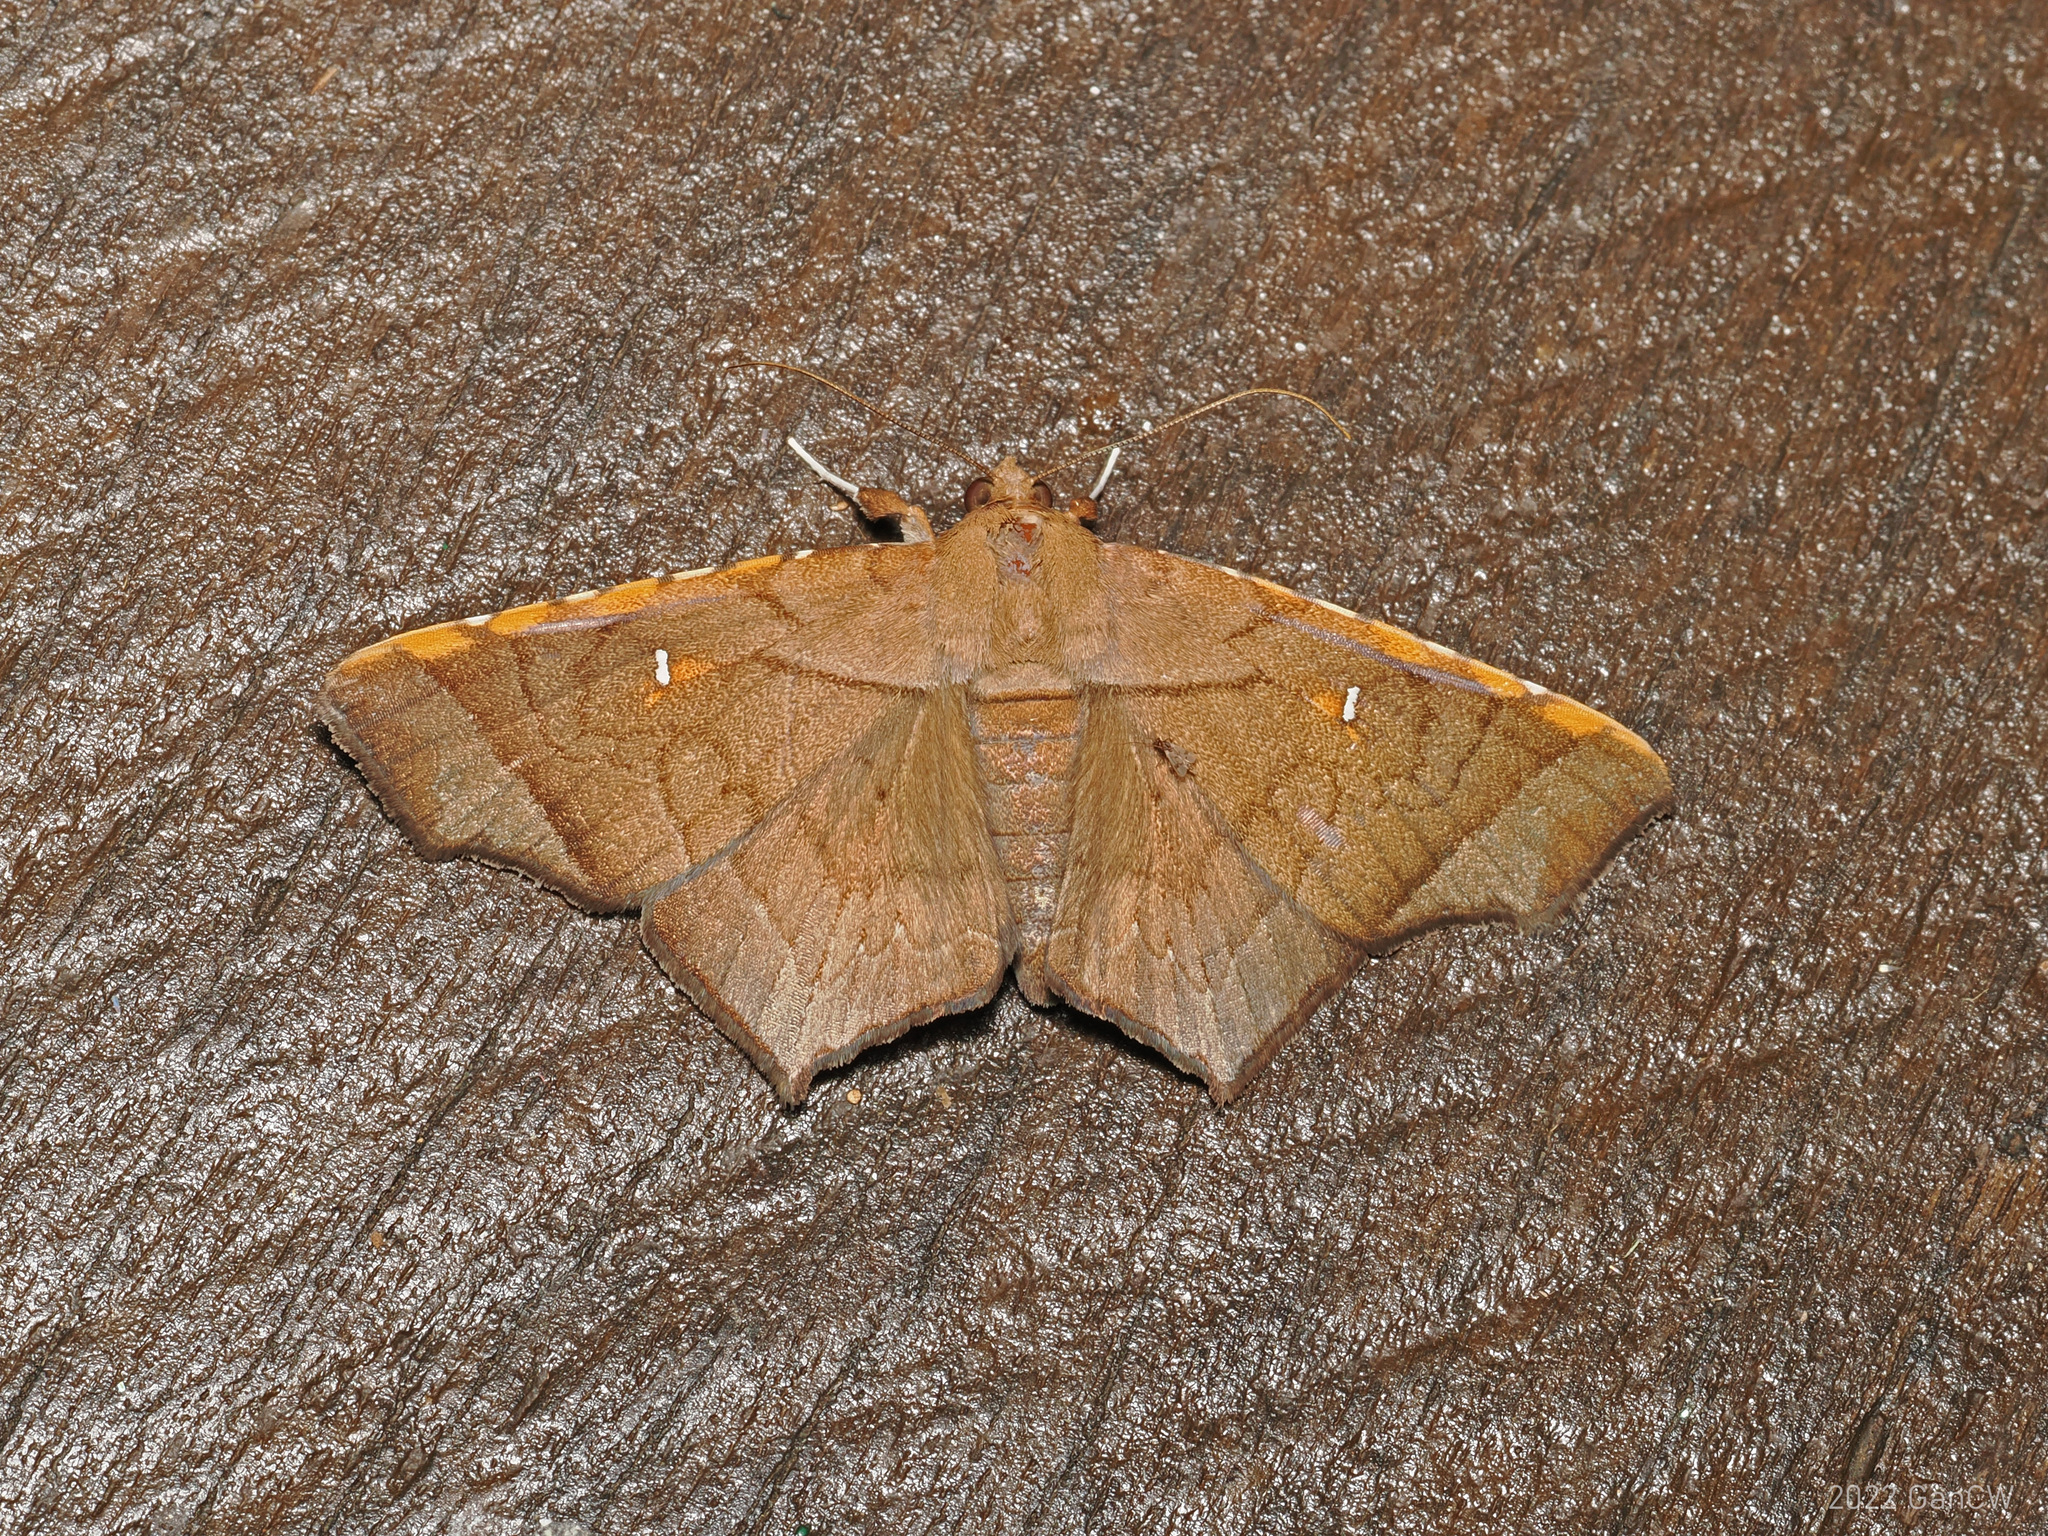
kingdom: Animalia
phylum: Arthropoda
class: Insecta
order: Lepidoptera
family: Erebidae
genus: Episparis
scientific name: Episparis costistriga
